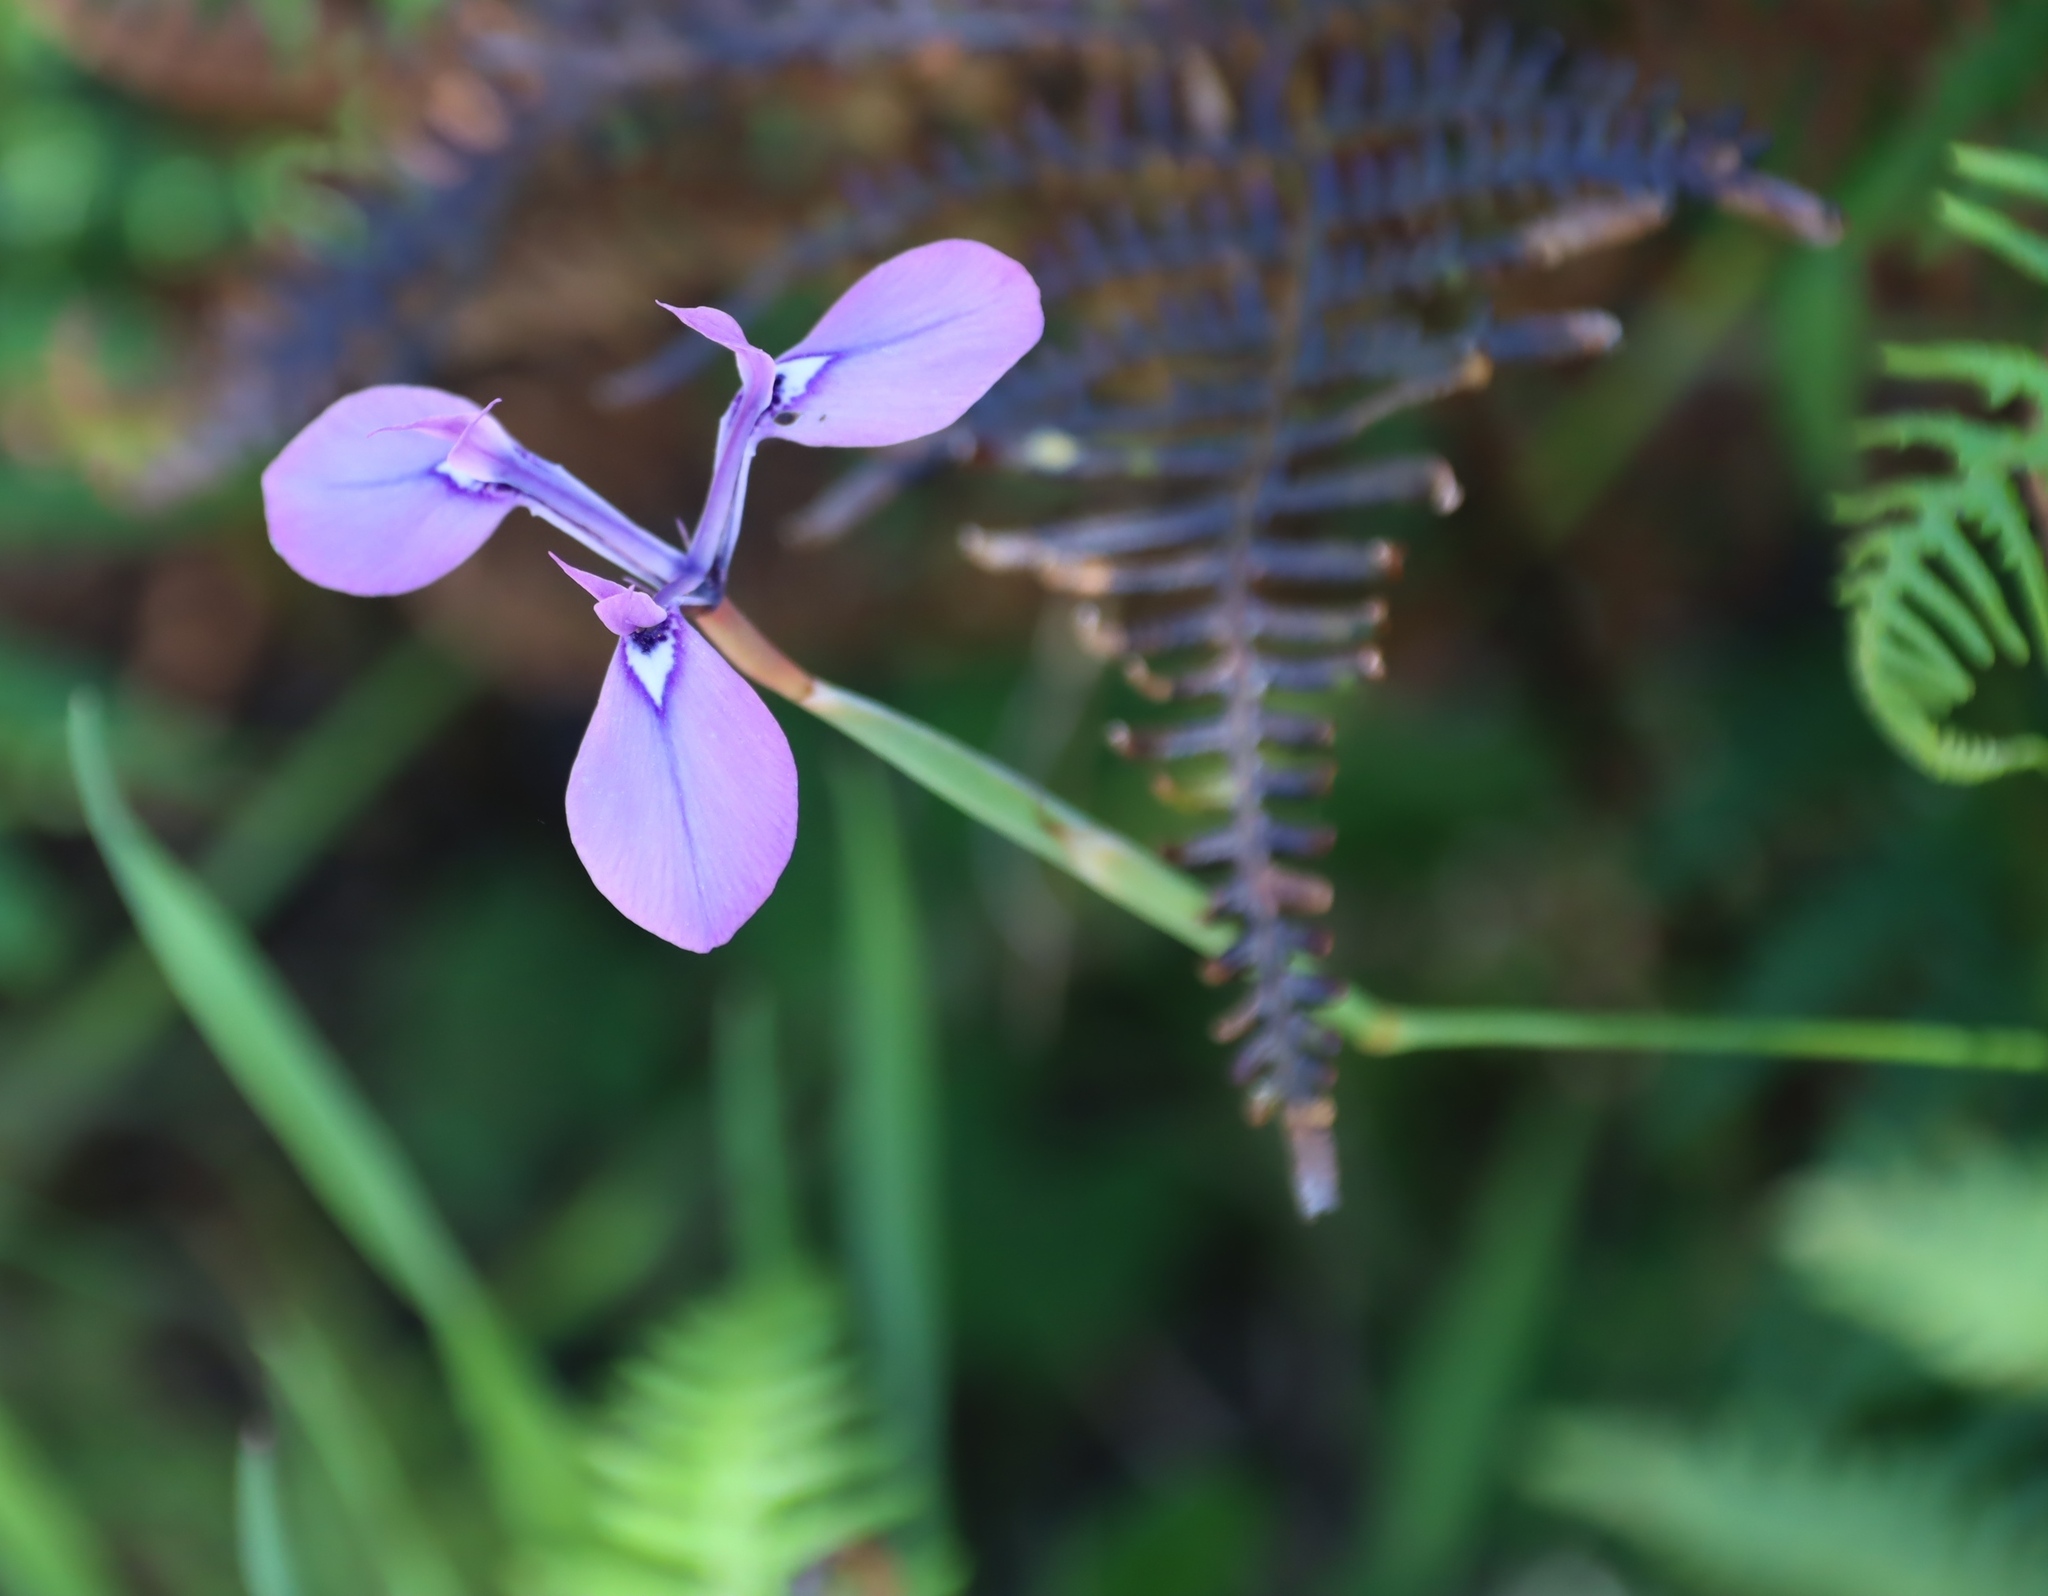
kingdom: Plantae
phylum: Tracheophyta
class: Liliopsida
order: Asparagales
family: Iridaceae
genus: Moraea
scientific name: Moraea tripetala
